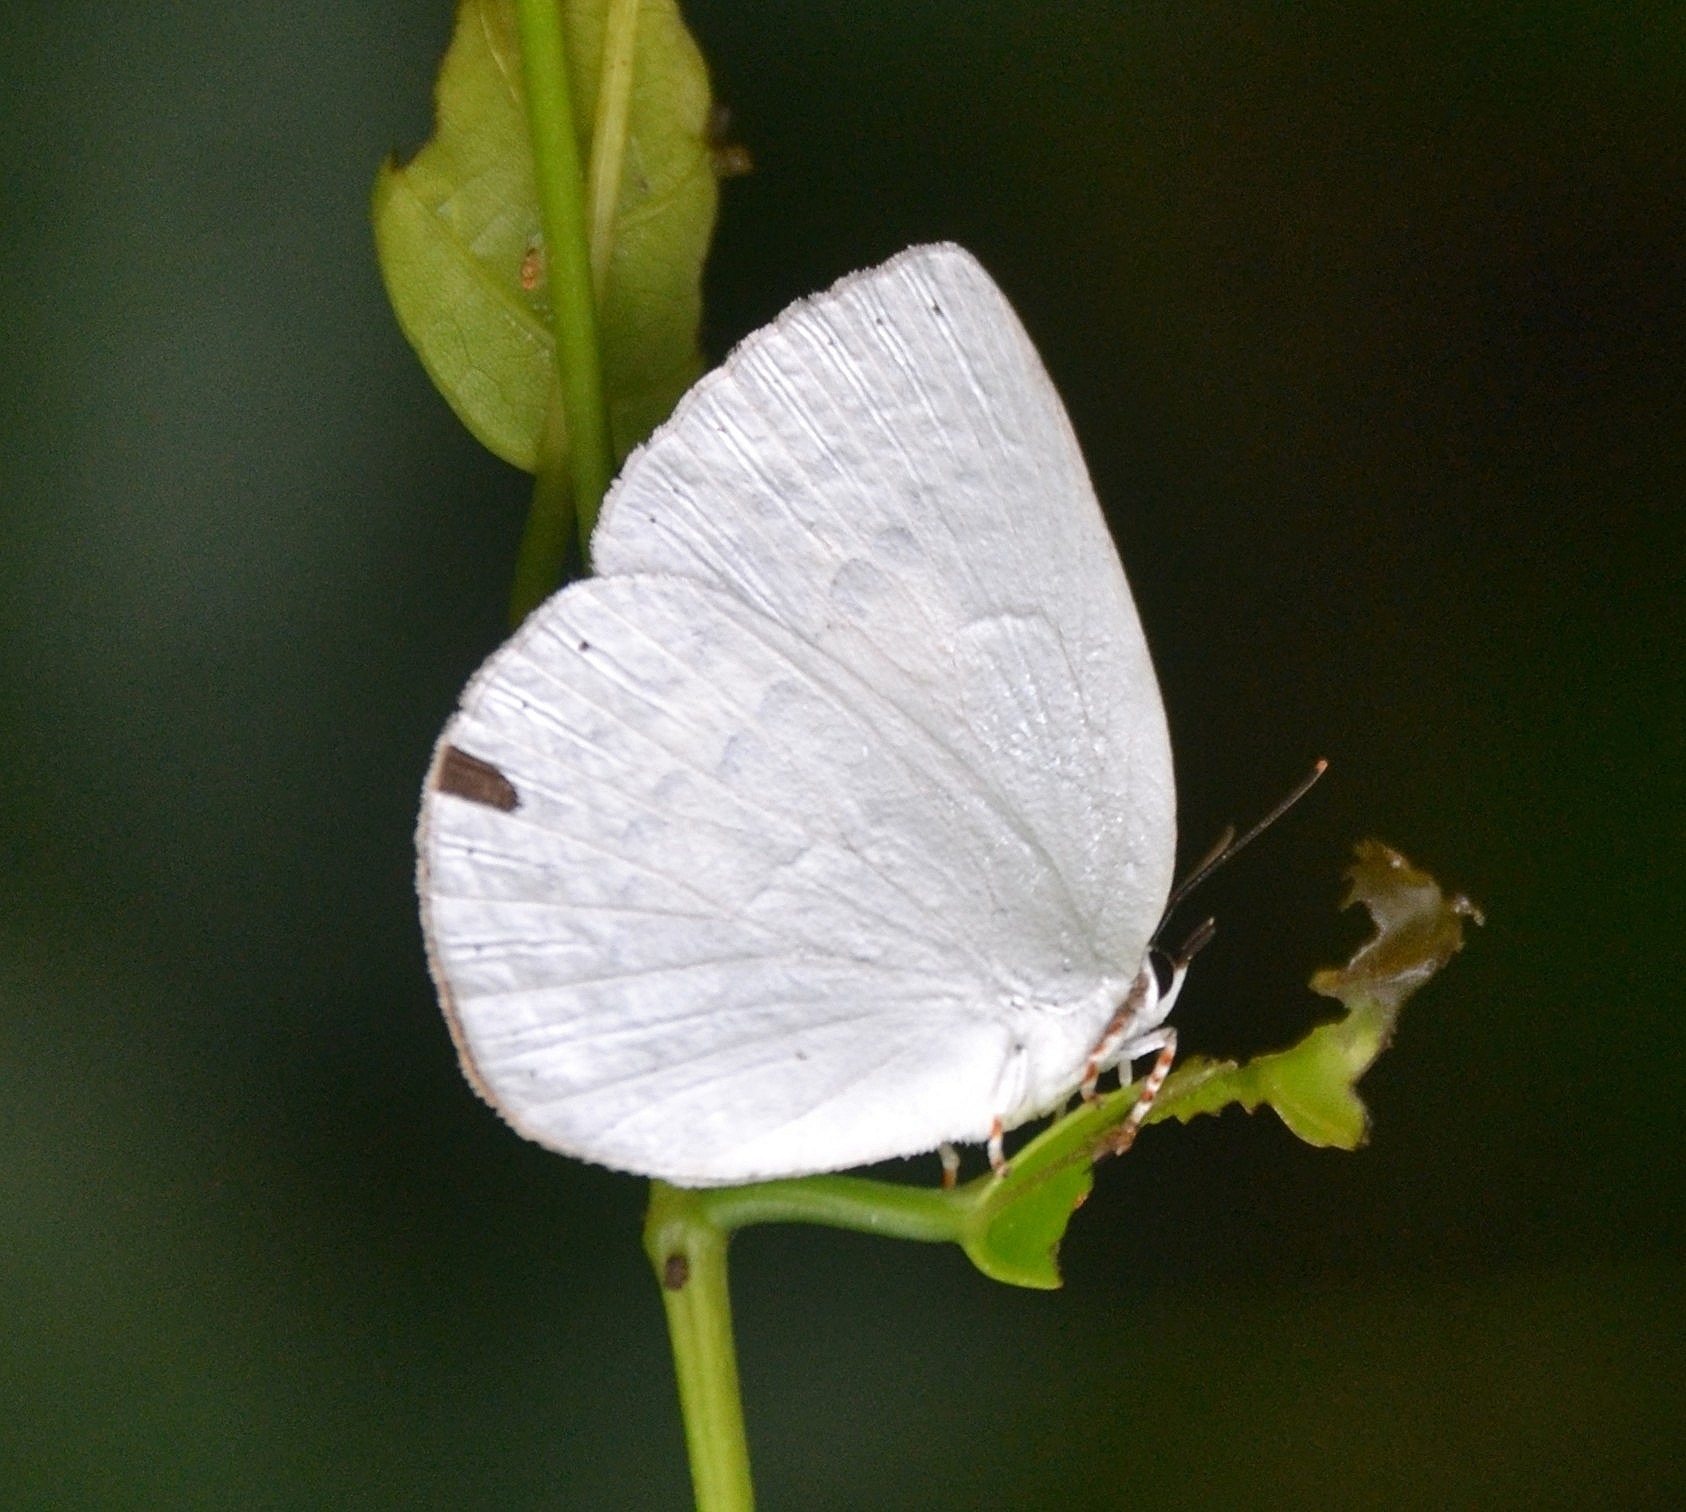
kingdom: Animalia
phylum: Arthropoda
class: Insecta
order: Lepidoptera
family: Lycaenidae
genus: Curetis
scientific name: Curetis thetis
